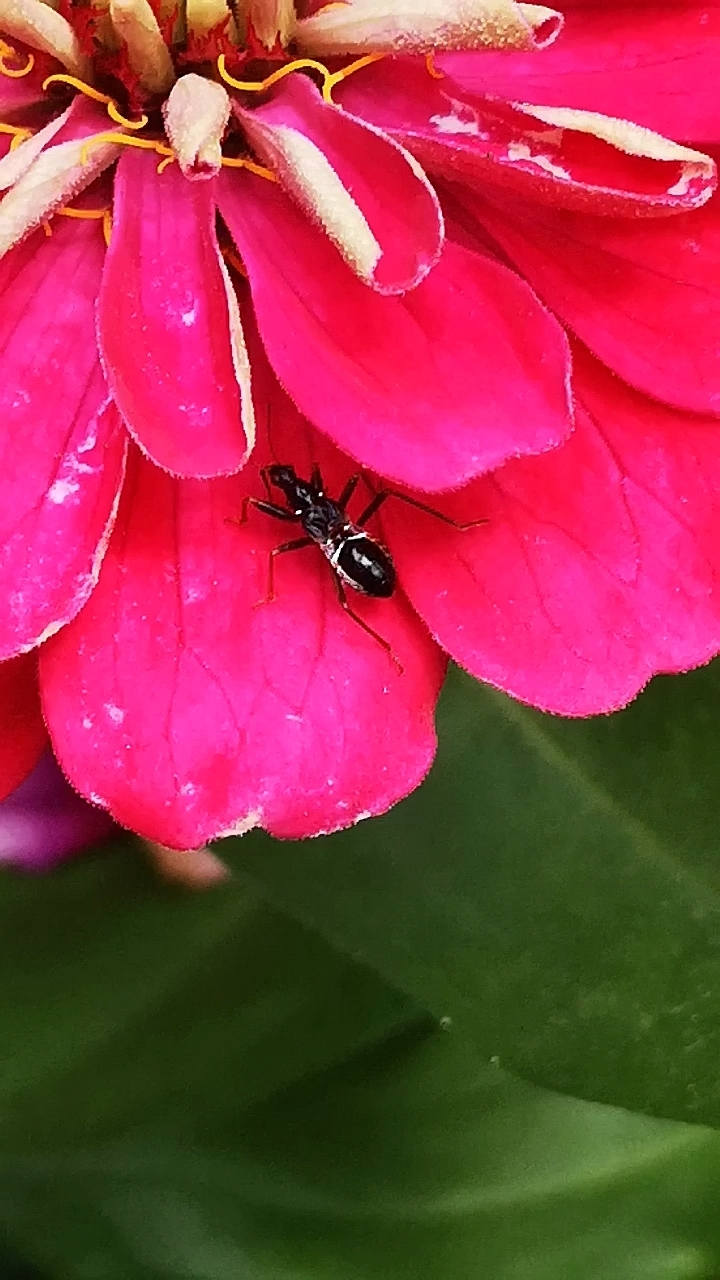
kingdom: Animalia
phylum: Arthropoda
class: Insecta
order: Hemiptera
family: Nabidae
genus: Himacerus
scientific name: Himacerus mirmicoides
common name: Ant damsel bug
